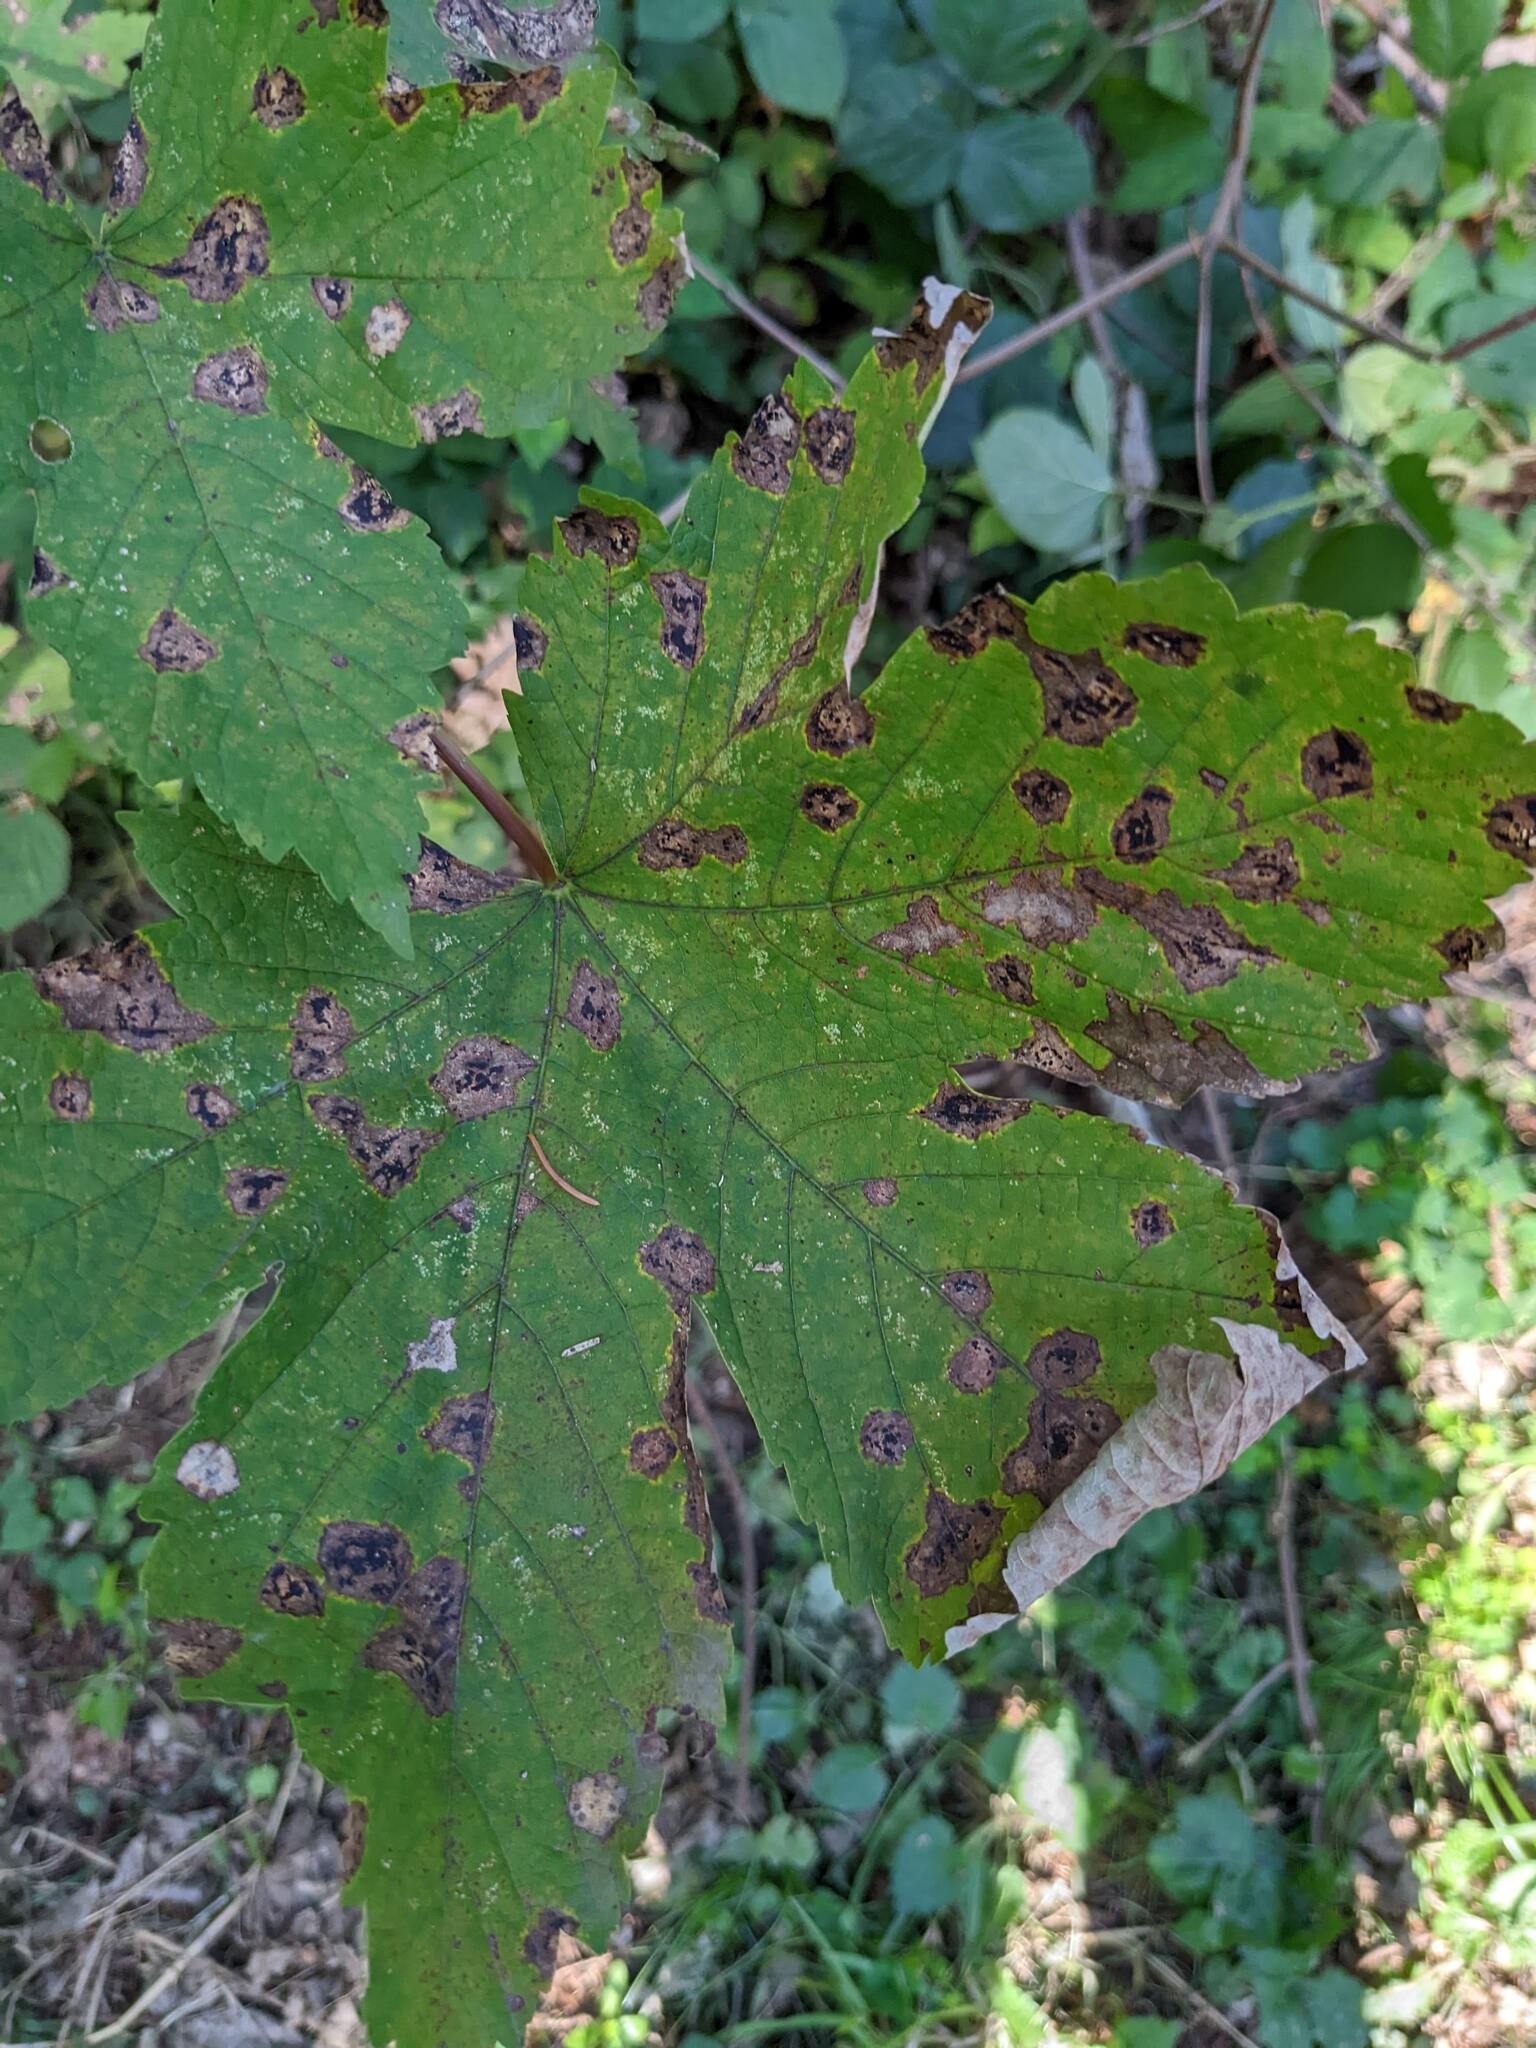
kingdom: Fungi
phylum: Ascomycota
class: Leotiomycetes
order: Rhytismatales
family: Rhytismataceae
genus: Rhytisma
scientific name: Rhytisma acerinum
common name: European tar spot
